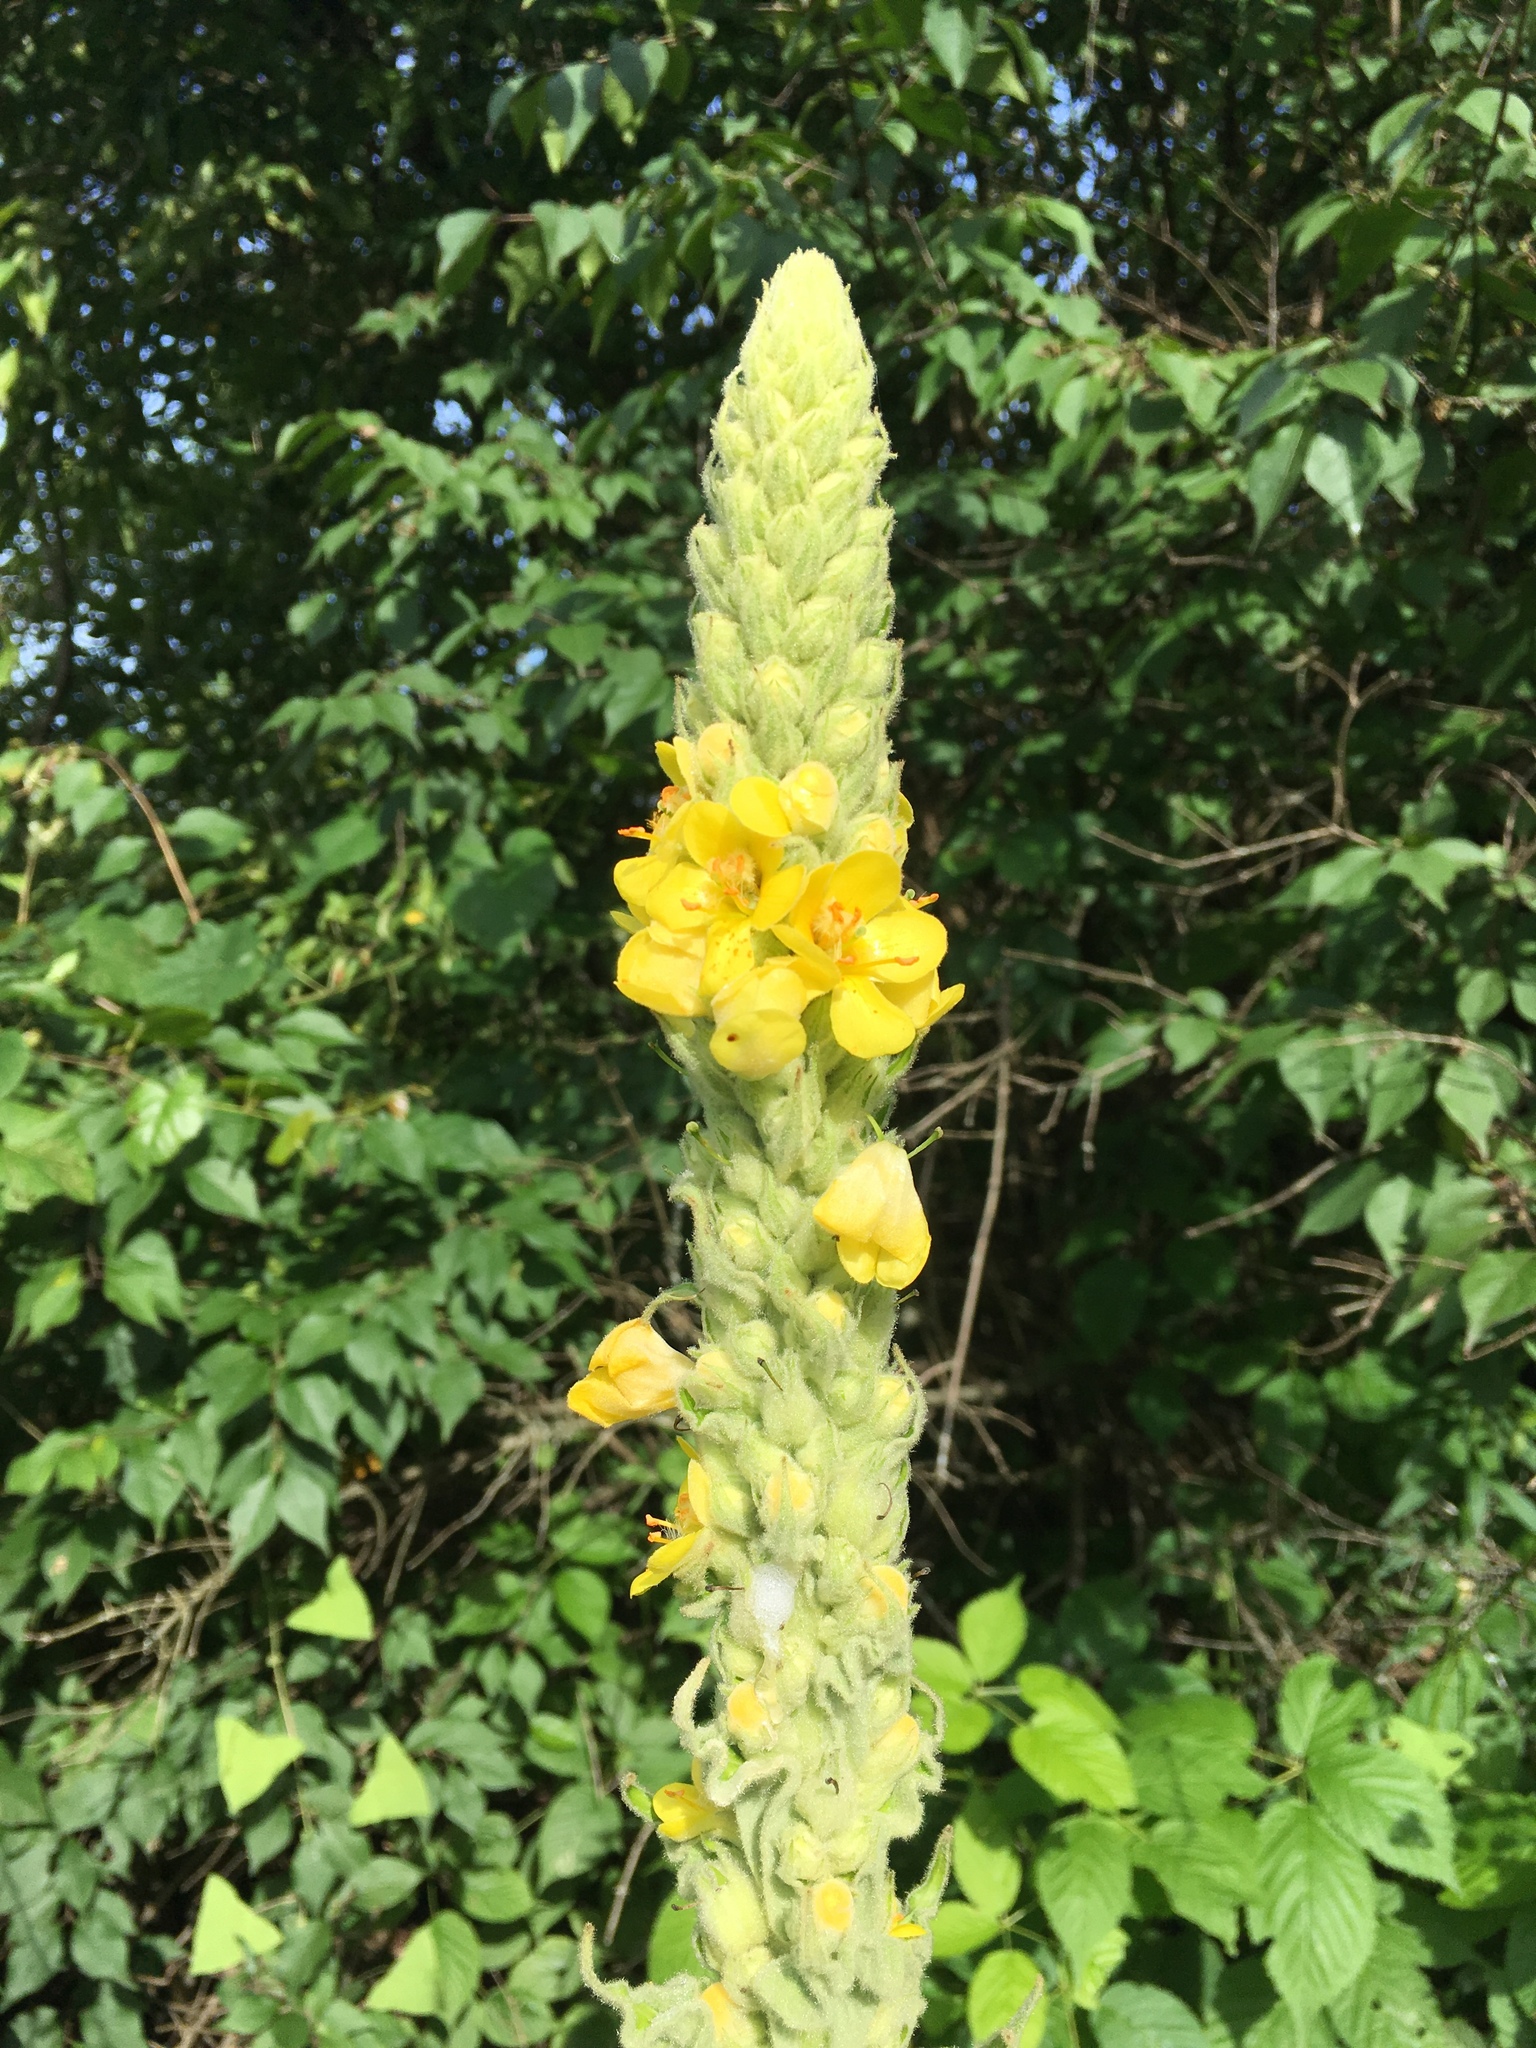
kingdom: Plantae
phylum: Tracheophyta
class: Magnoliopsida
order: Lamiales
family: Scrophulariaceae
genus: Verbascum
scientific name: Verbascum thapsus
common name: Common mullein
